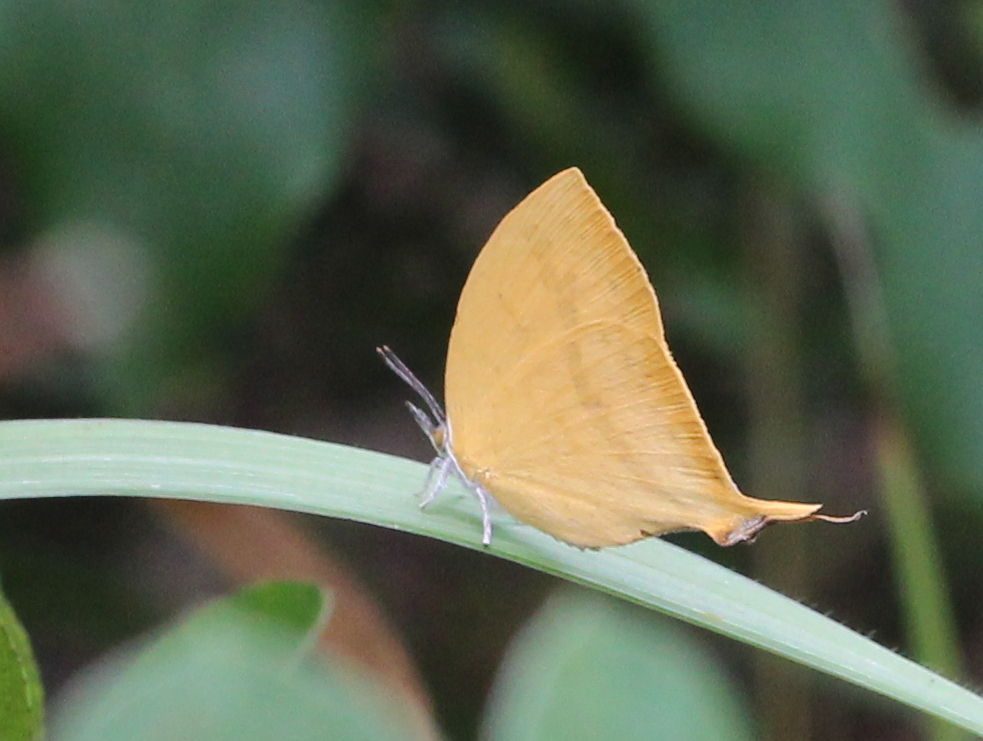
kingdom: Animalia
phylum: Arthropoda
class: Insecta
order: Lepidoptera
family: Lycaenidae
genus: Loxura
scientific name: Loxura atymnus
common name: Common yamfly
